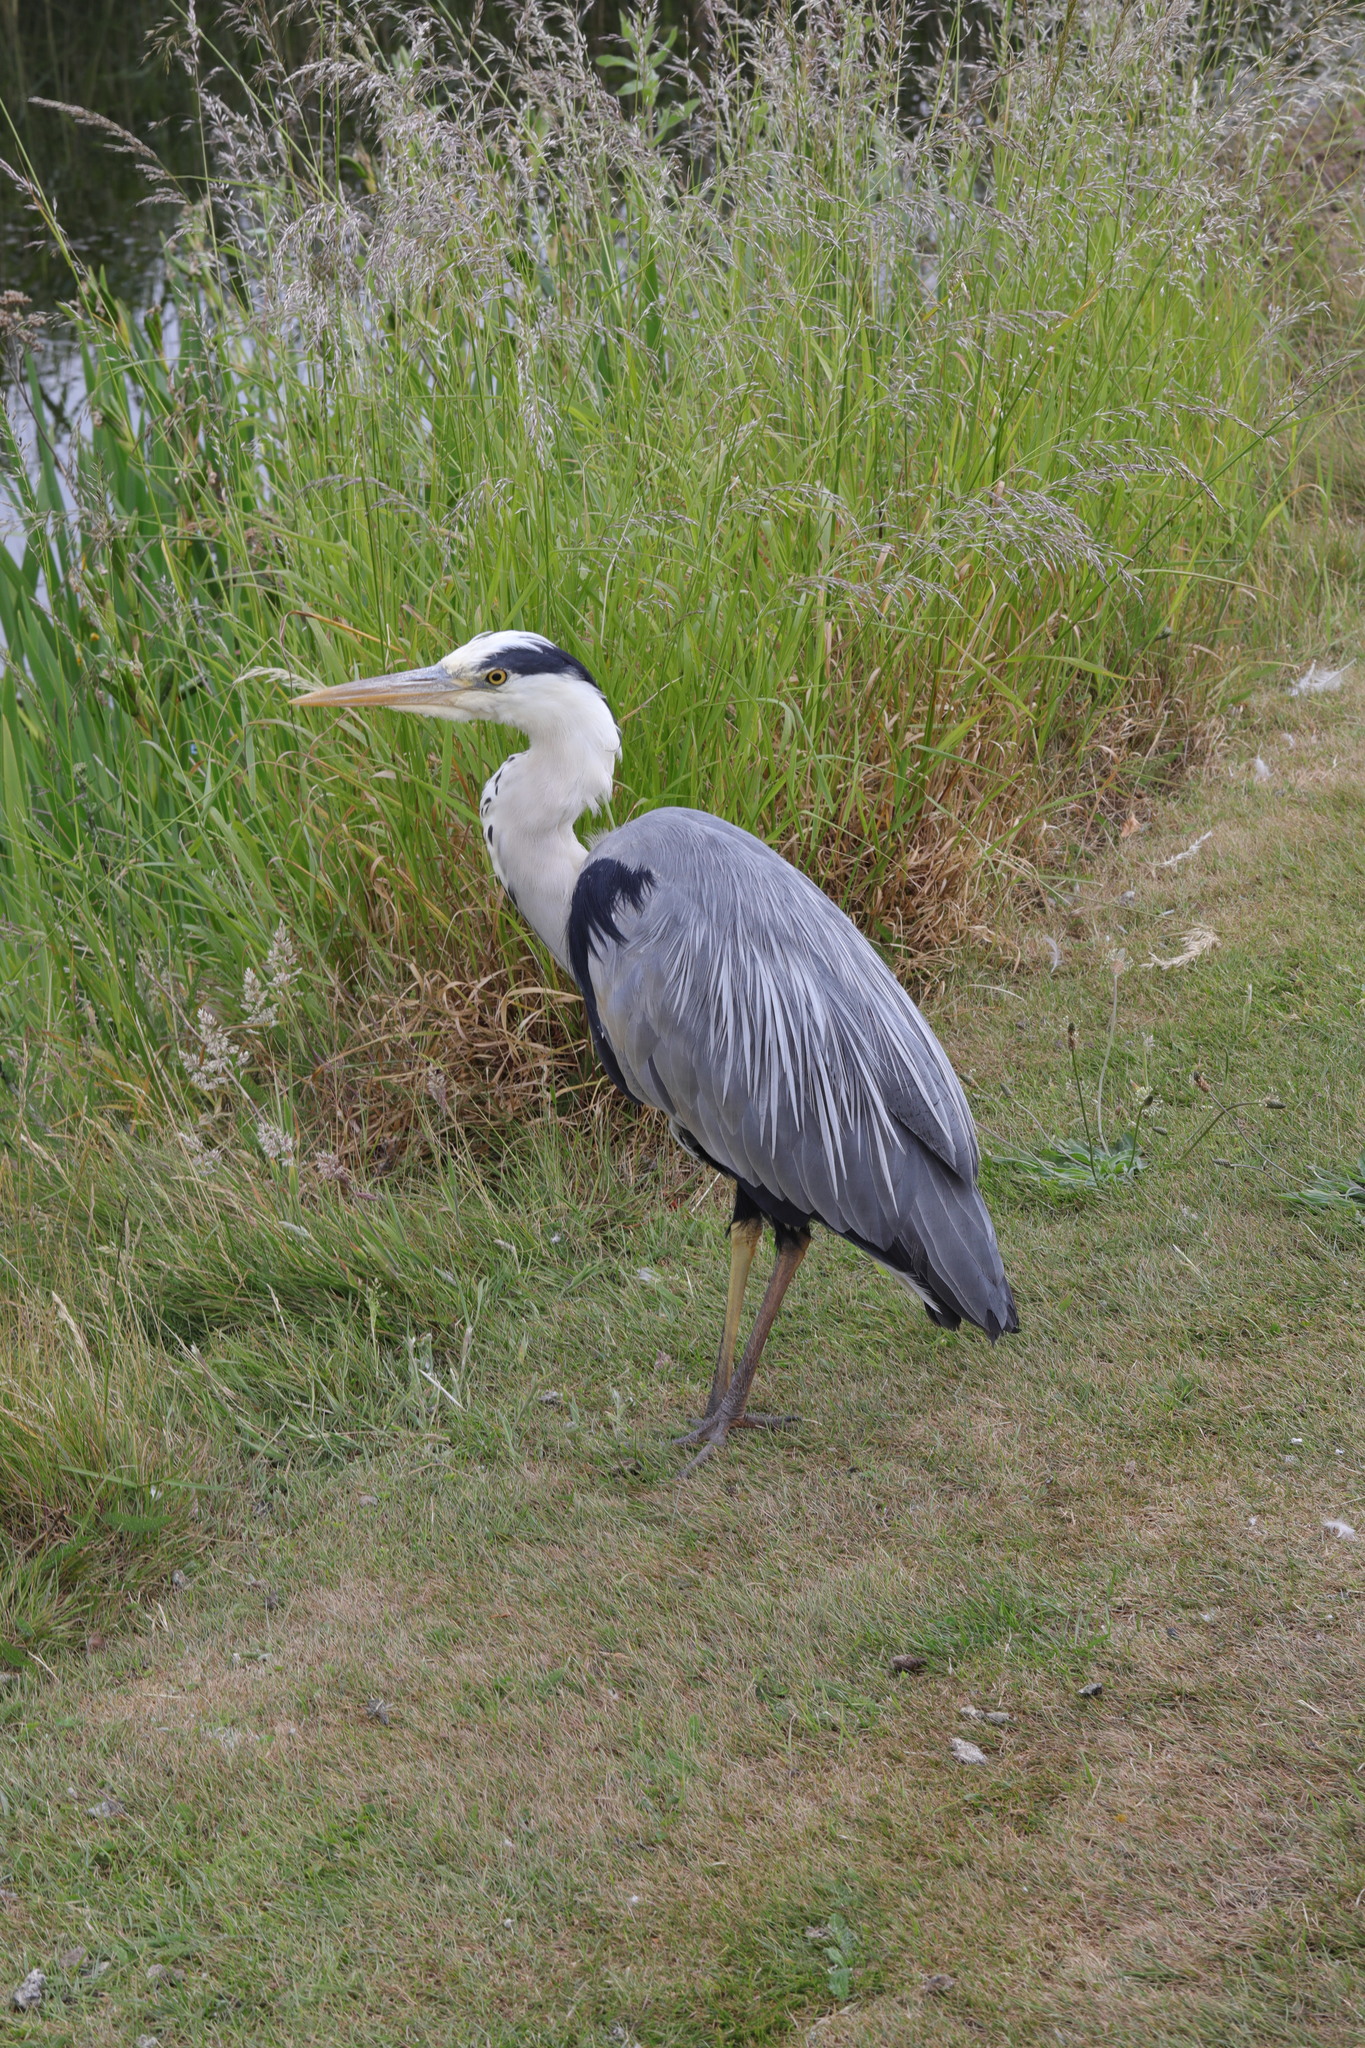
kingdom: Animalia
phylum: Chordata
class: Aves
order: Pelecaniformes
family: Ardeidae
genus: Ardea
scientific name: Ardea cinerea
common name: Grey heron
